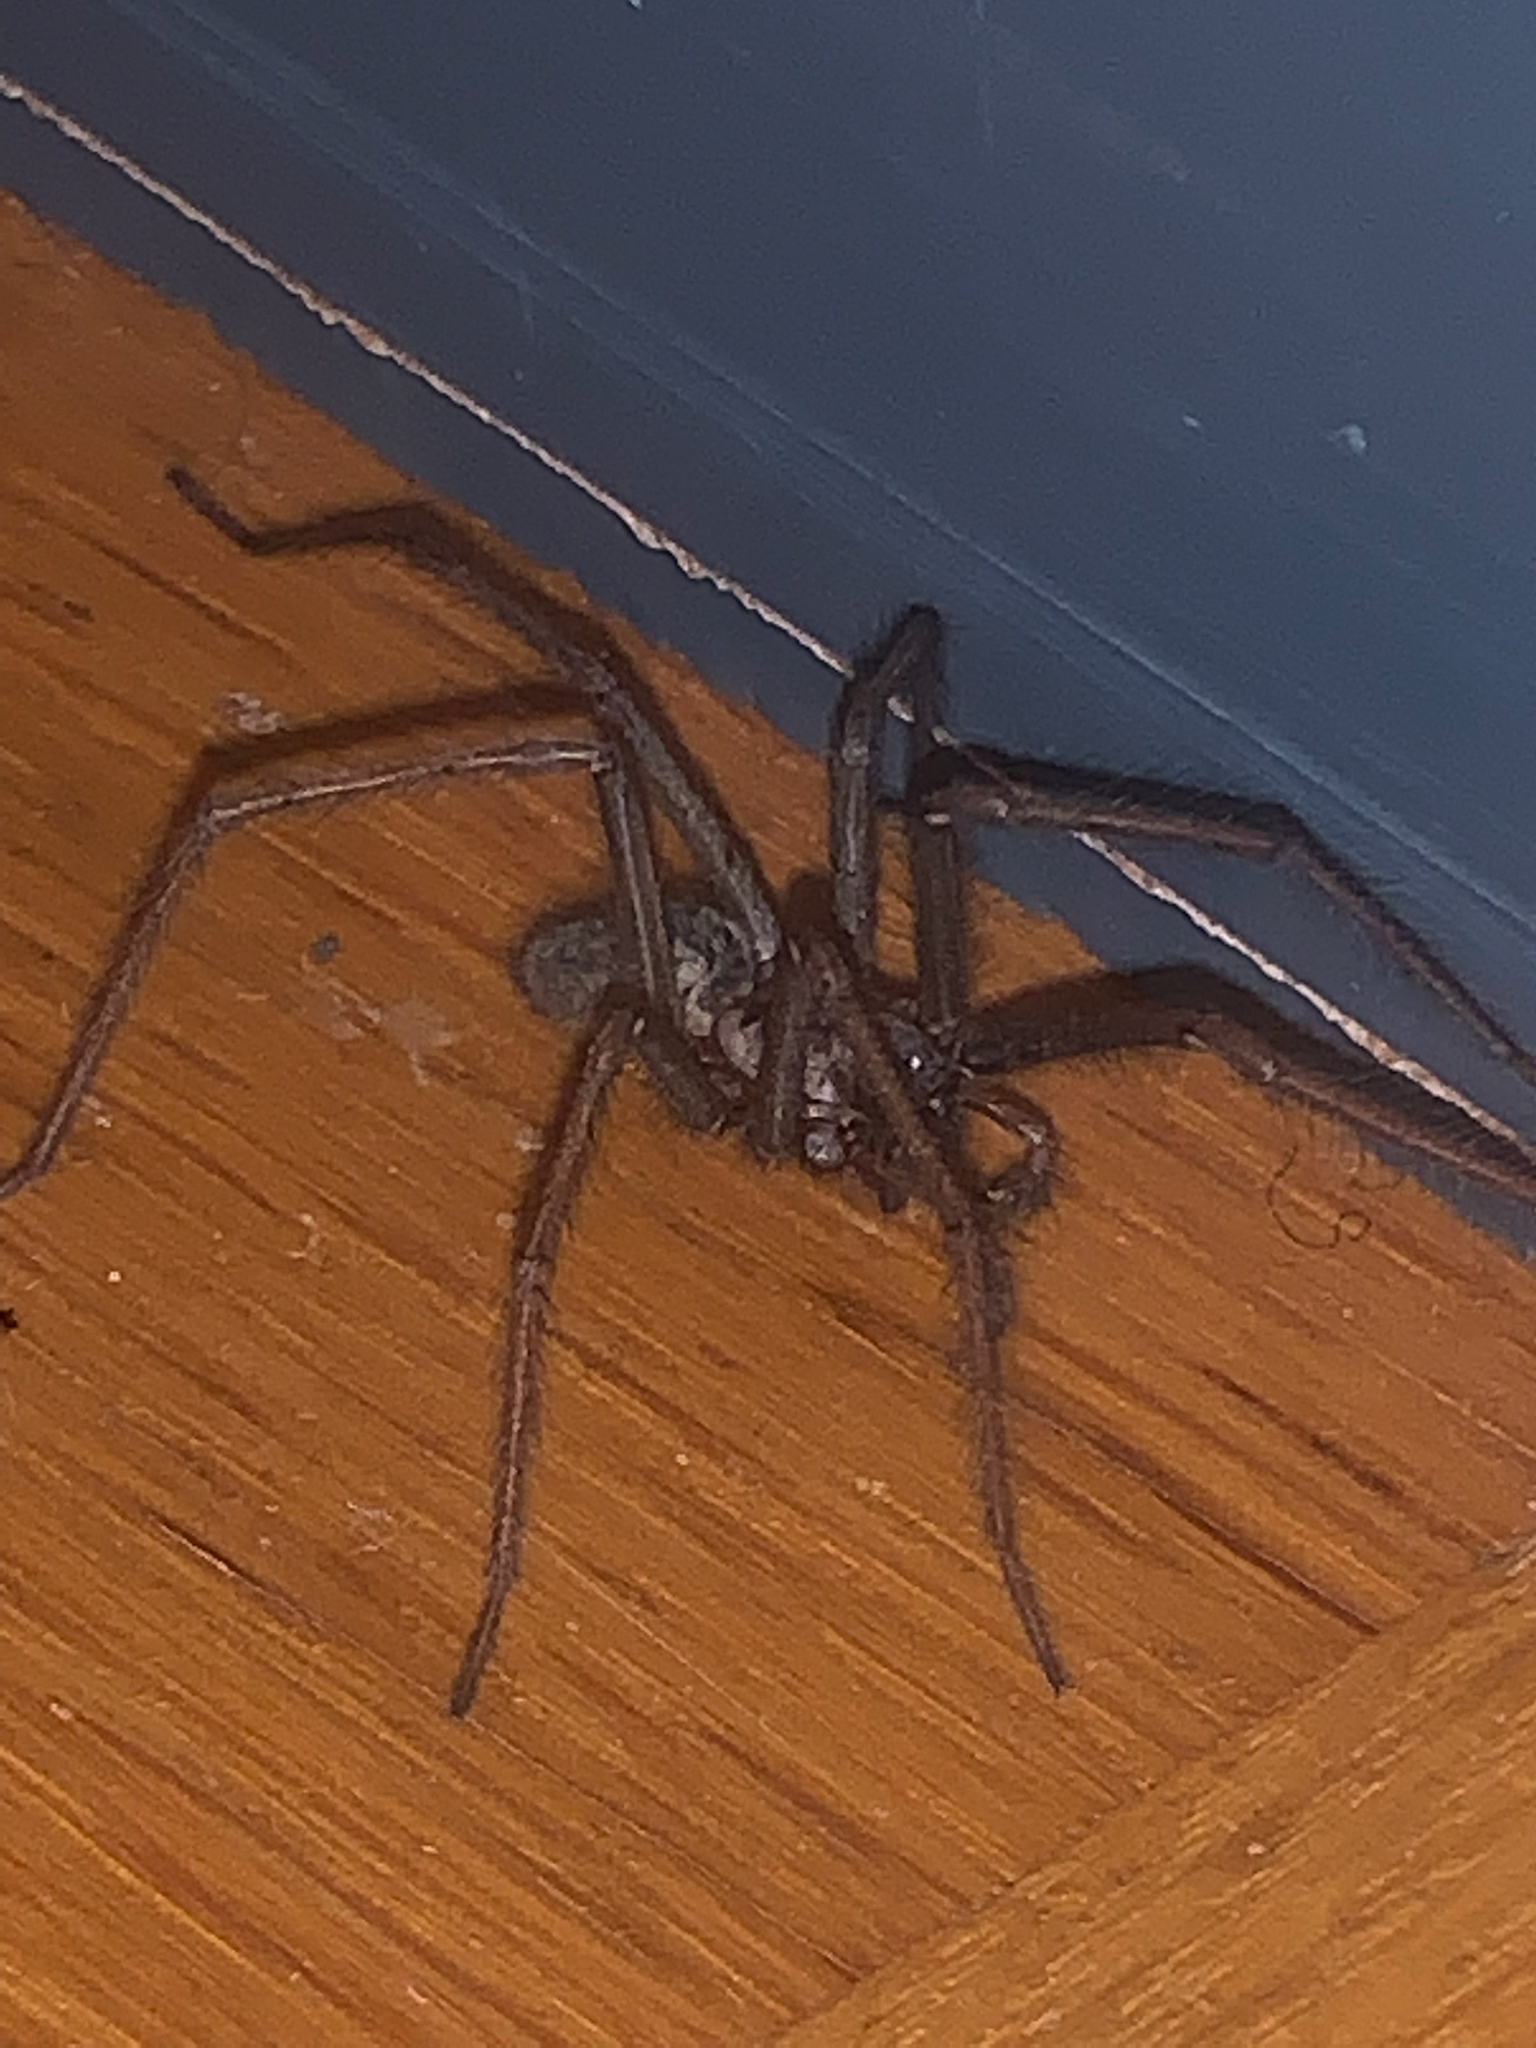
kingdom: Animalia
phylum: Arthropoda
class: Arachnida
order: Araneae
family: Agelenidae
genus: Eratigena
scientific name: Eratigena atrica
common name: Giant house spider
